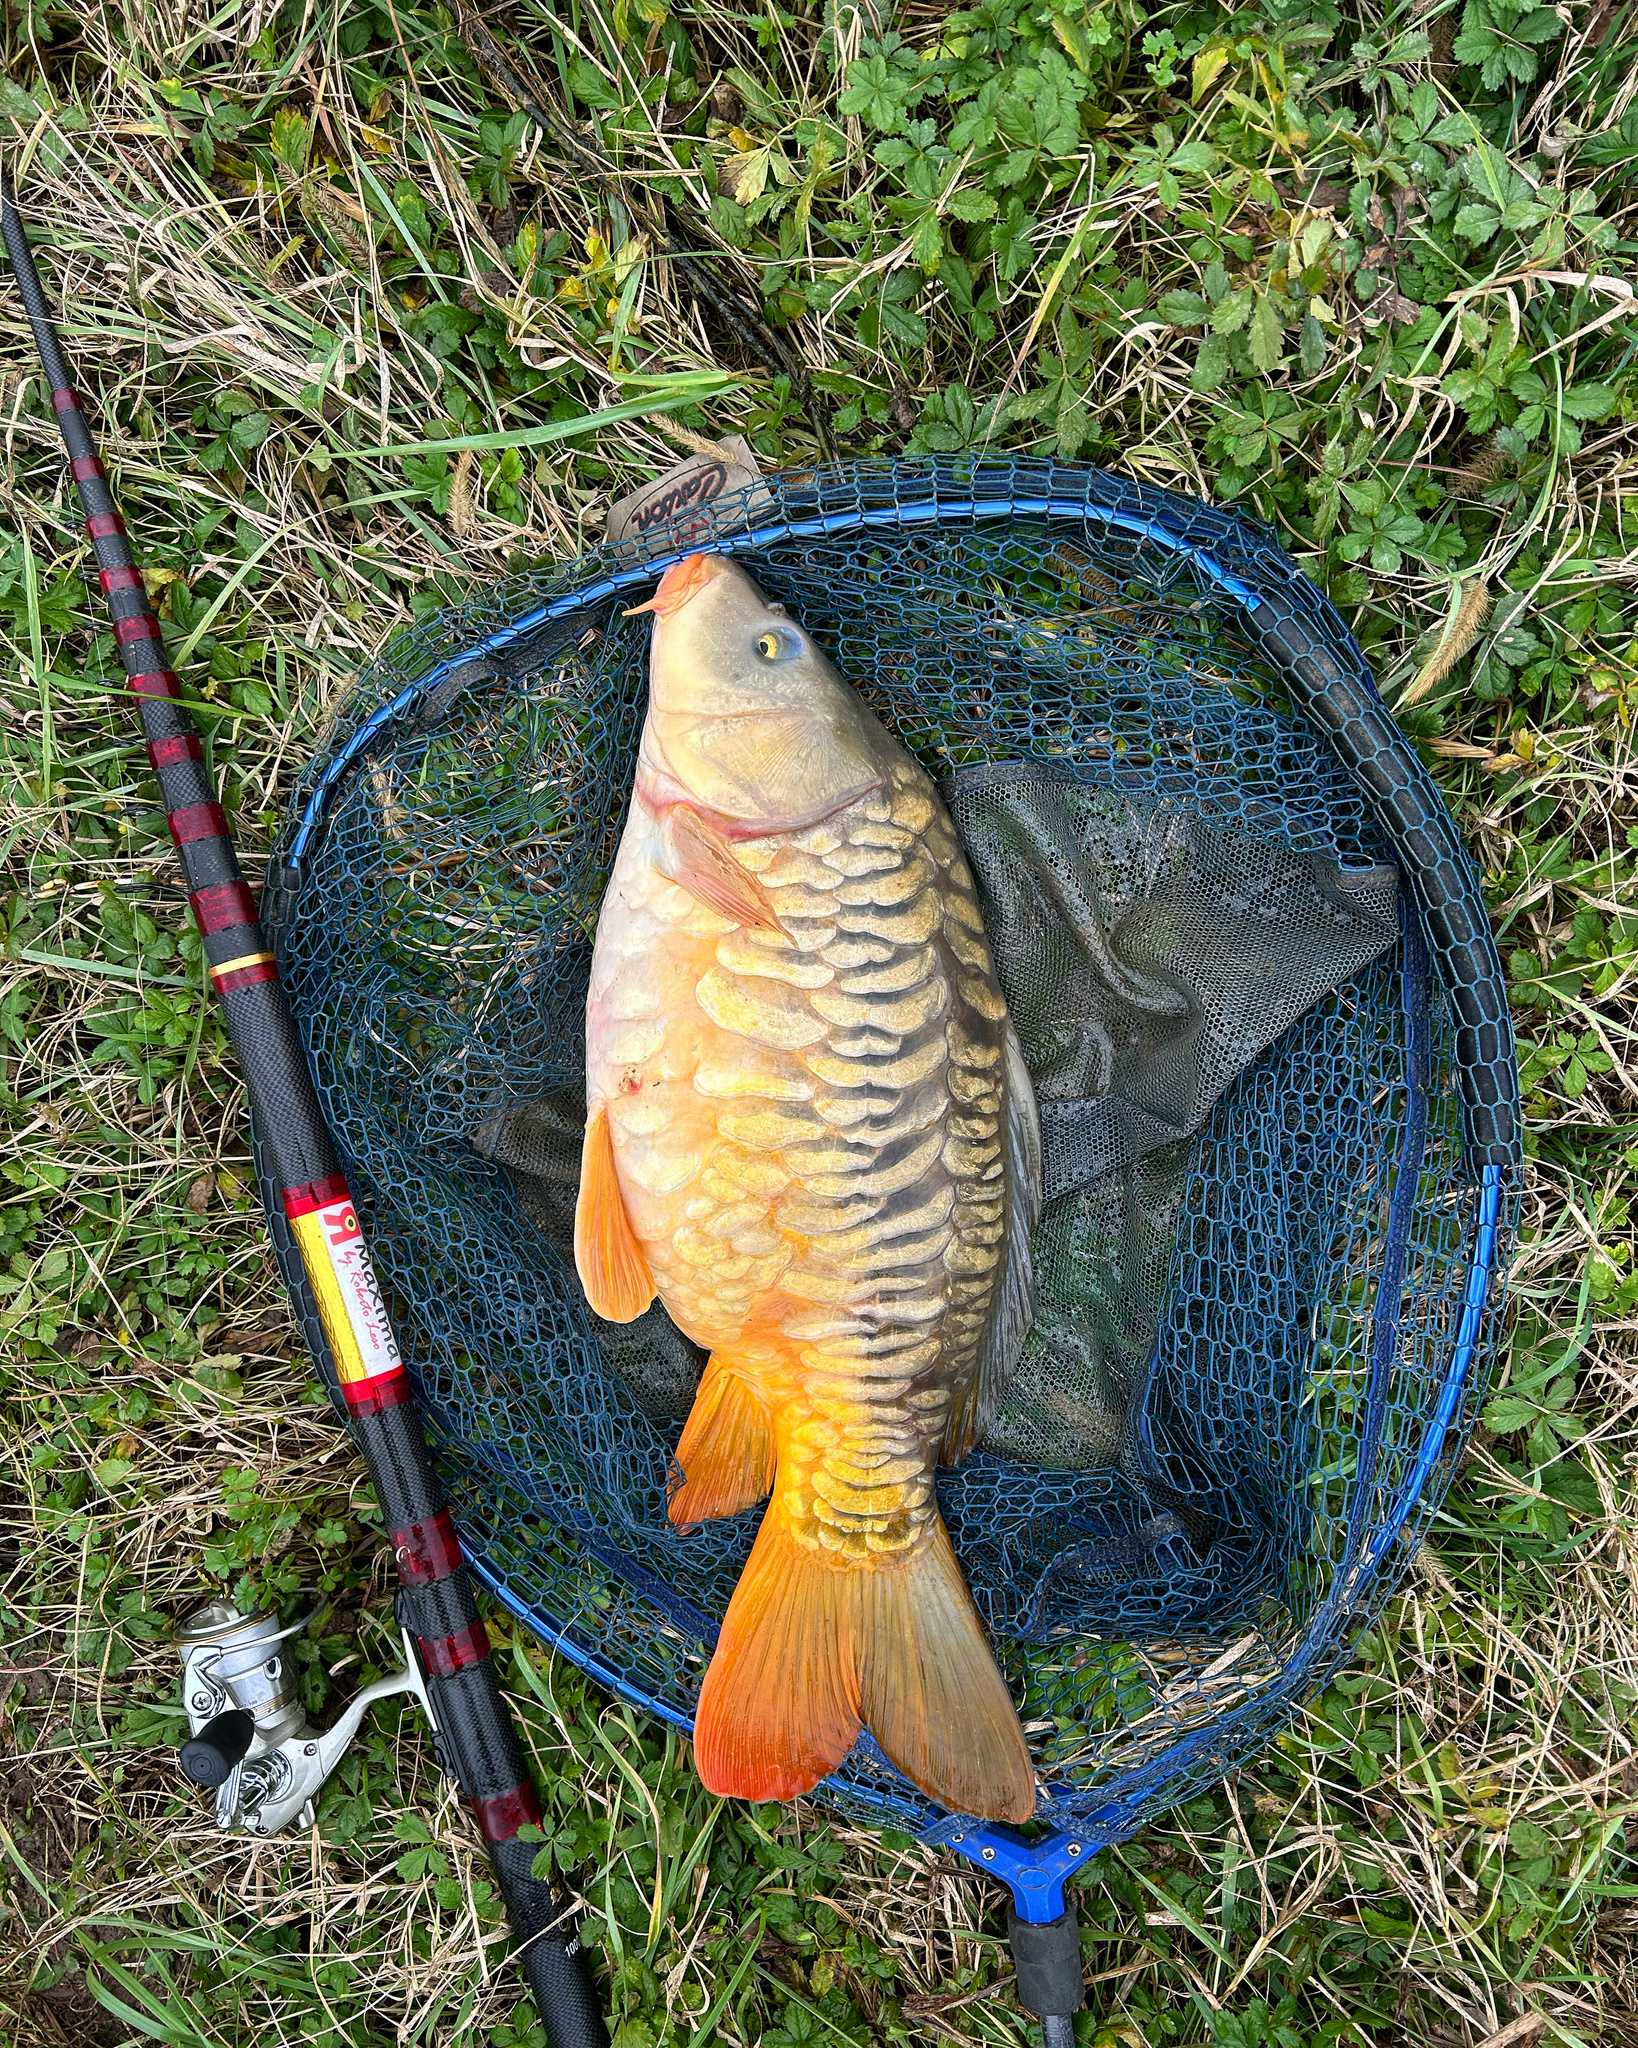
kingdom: Animalia
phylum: Chordata
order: Cypriniformes
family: Cyprinidae
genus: Cyprinus
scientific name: Cyprinus carpio
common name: Common carp
